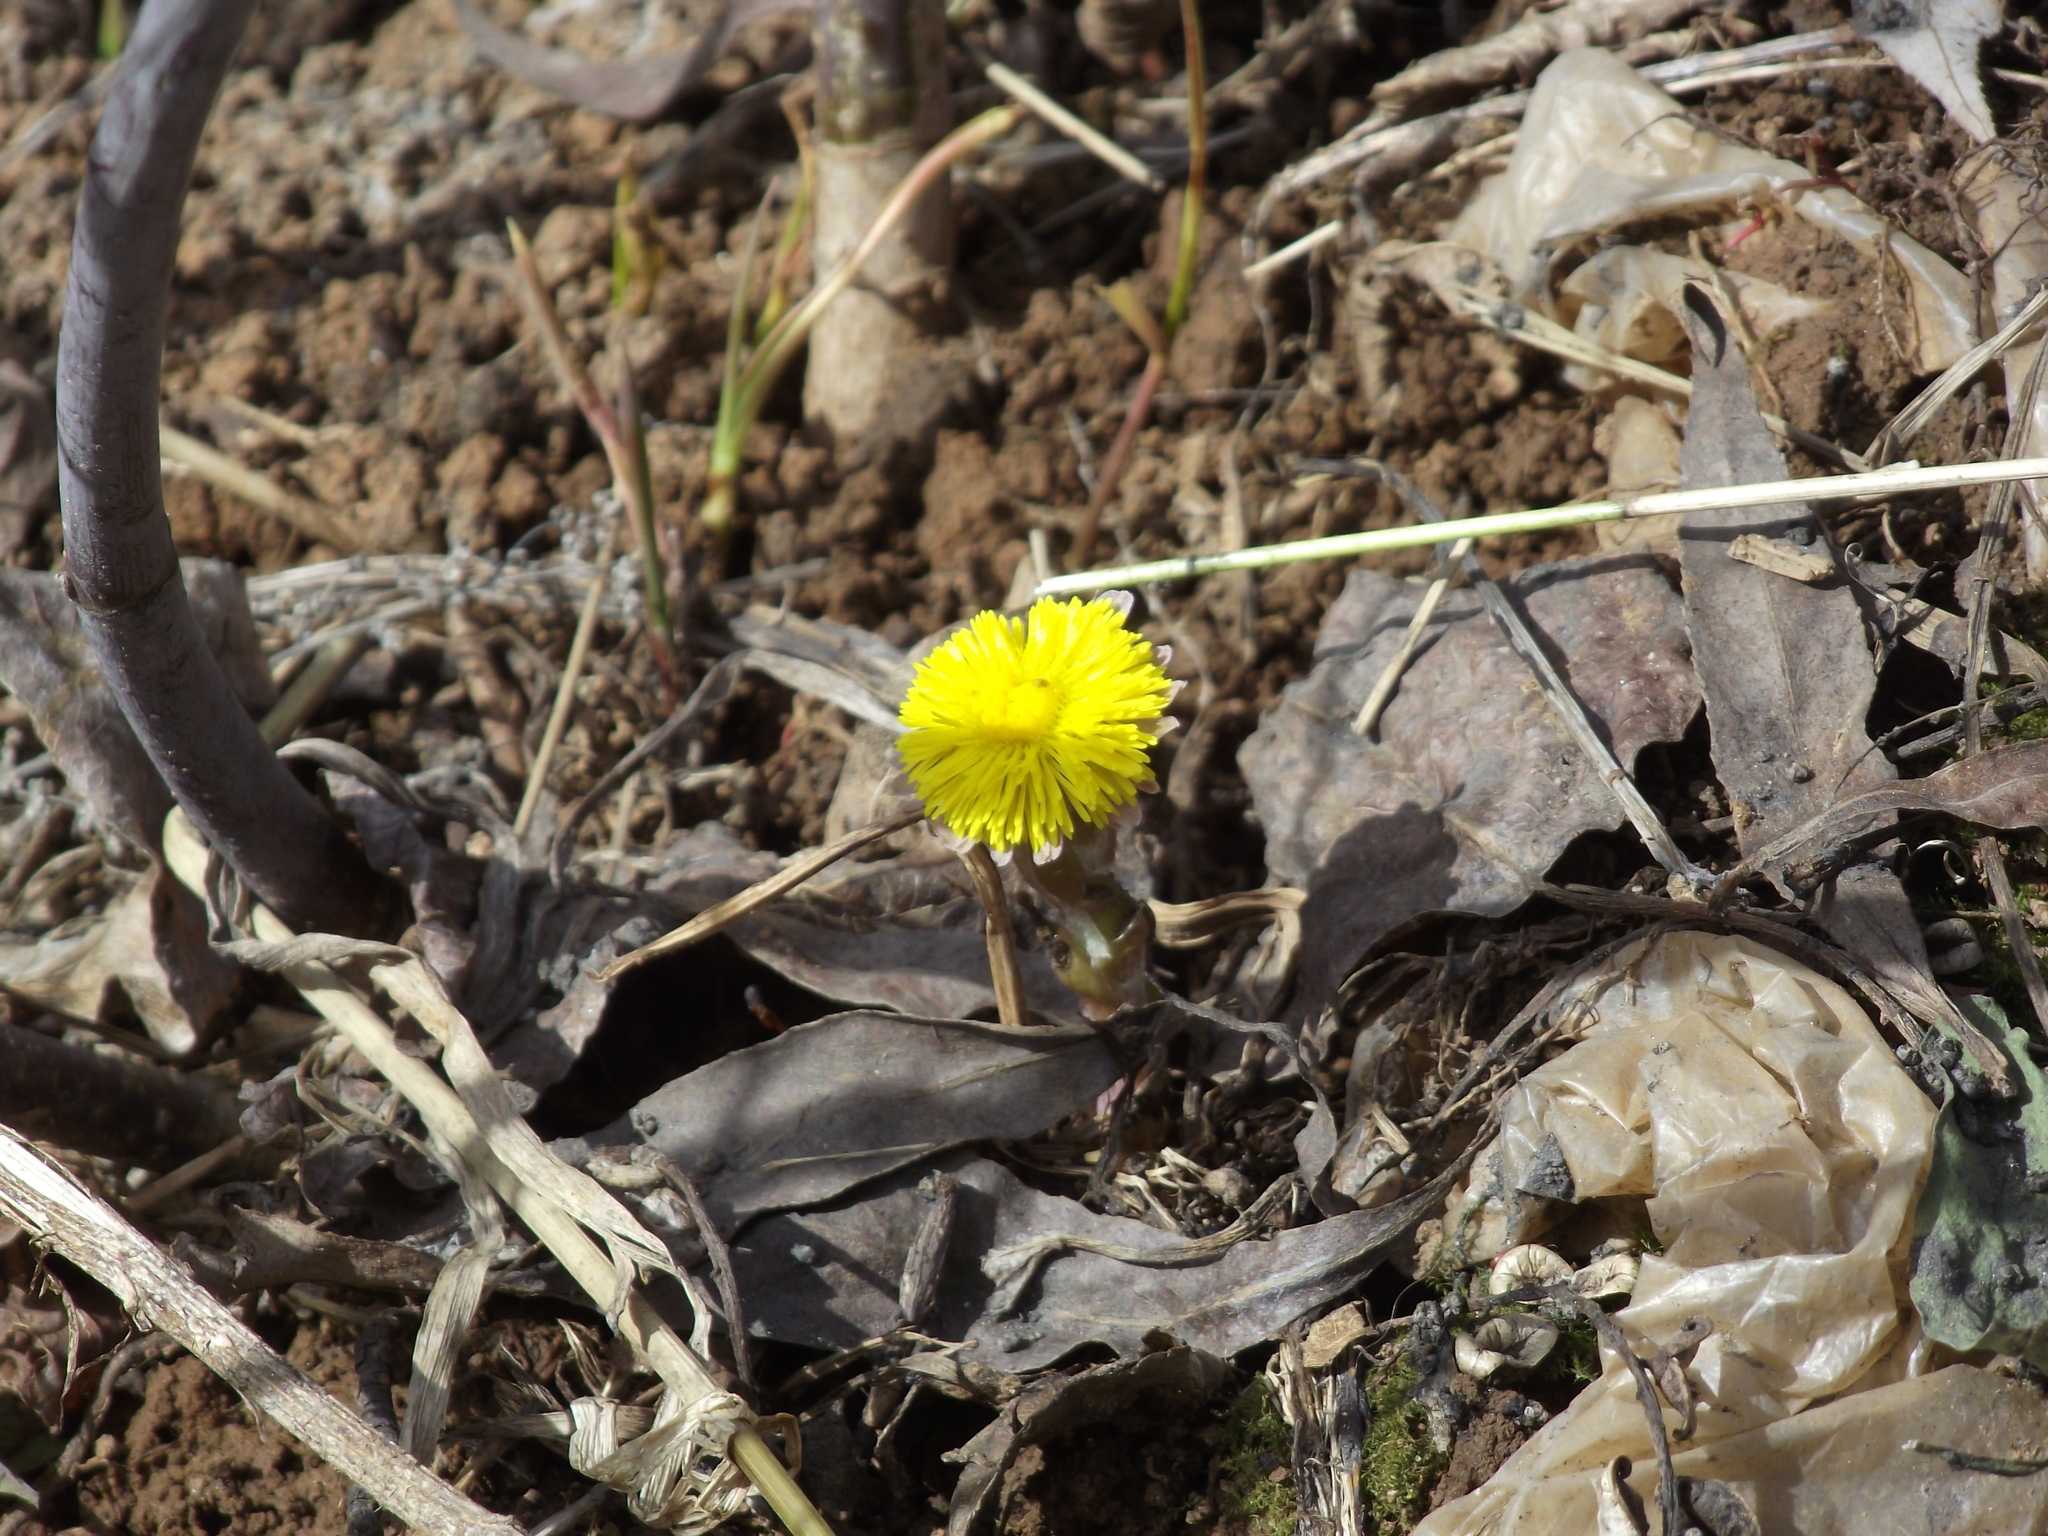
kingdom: Plantae
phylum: Tracheophyta
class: Magnoliopsida
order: Asterales
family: Asteraceae
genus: Tussilago
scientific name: Tussilago farfara
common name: Coltsfoot
